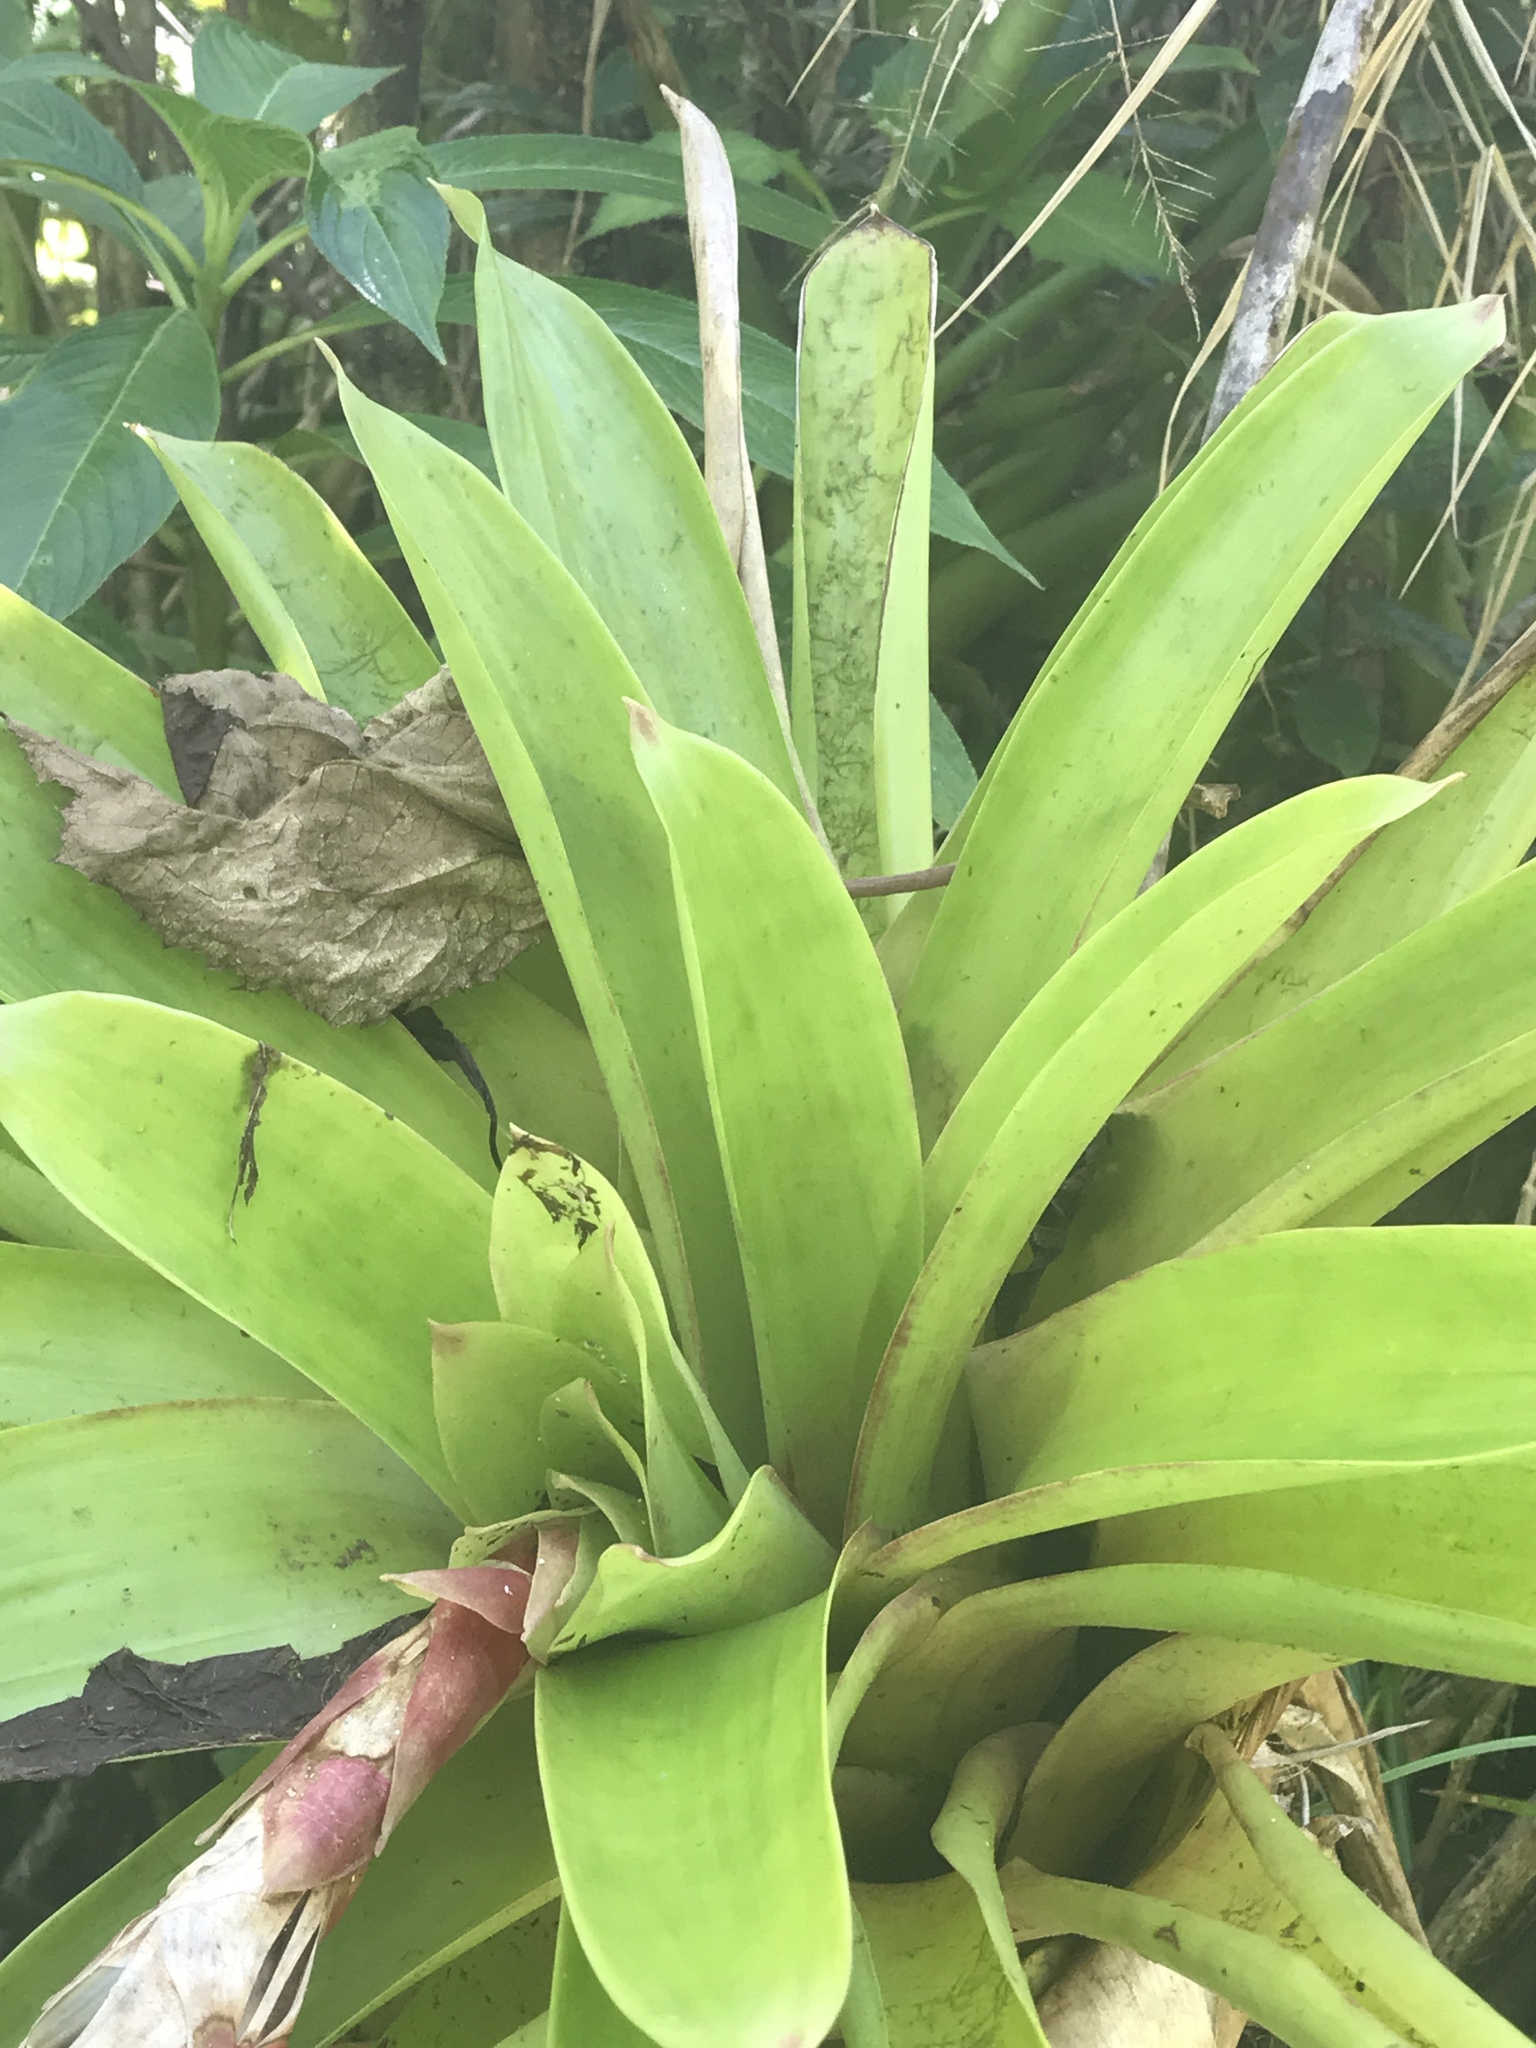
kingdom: Plantae
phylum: Tracheophyta
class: Liliopsida
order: Poales
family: Bromeliaceae
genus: Guzmania
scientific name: Guzmania berteroniana
